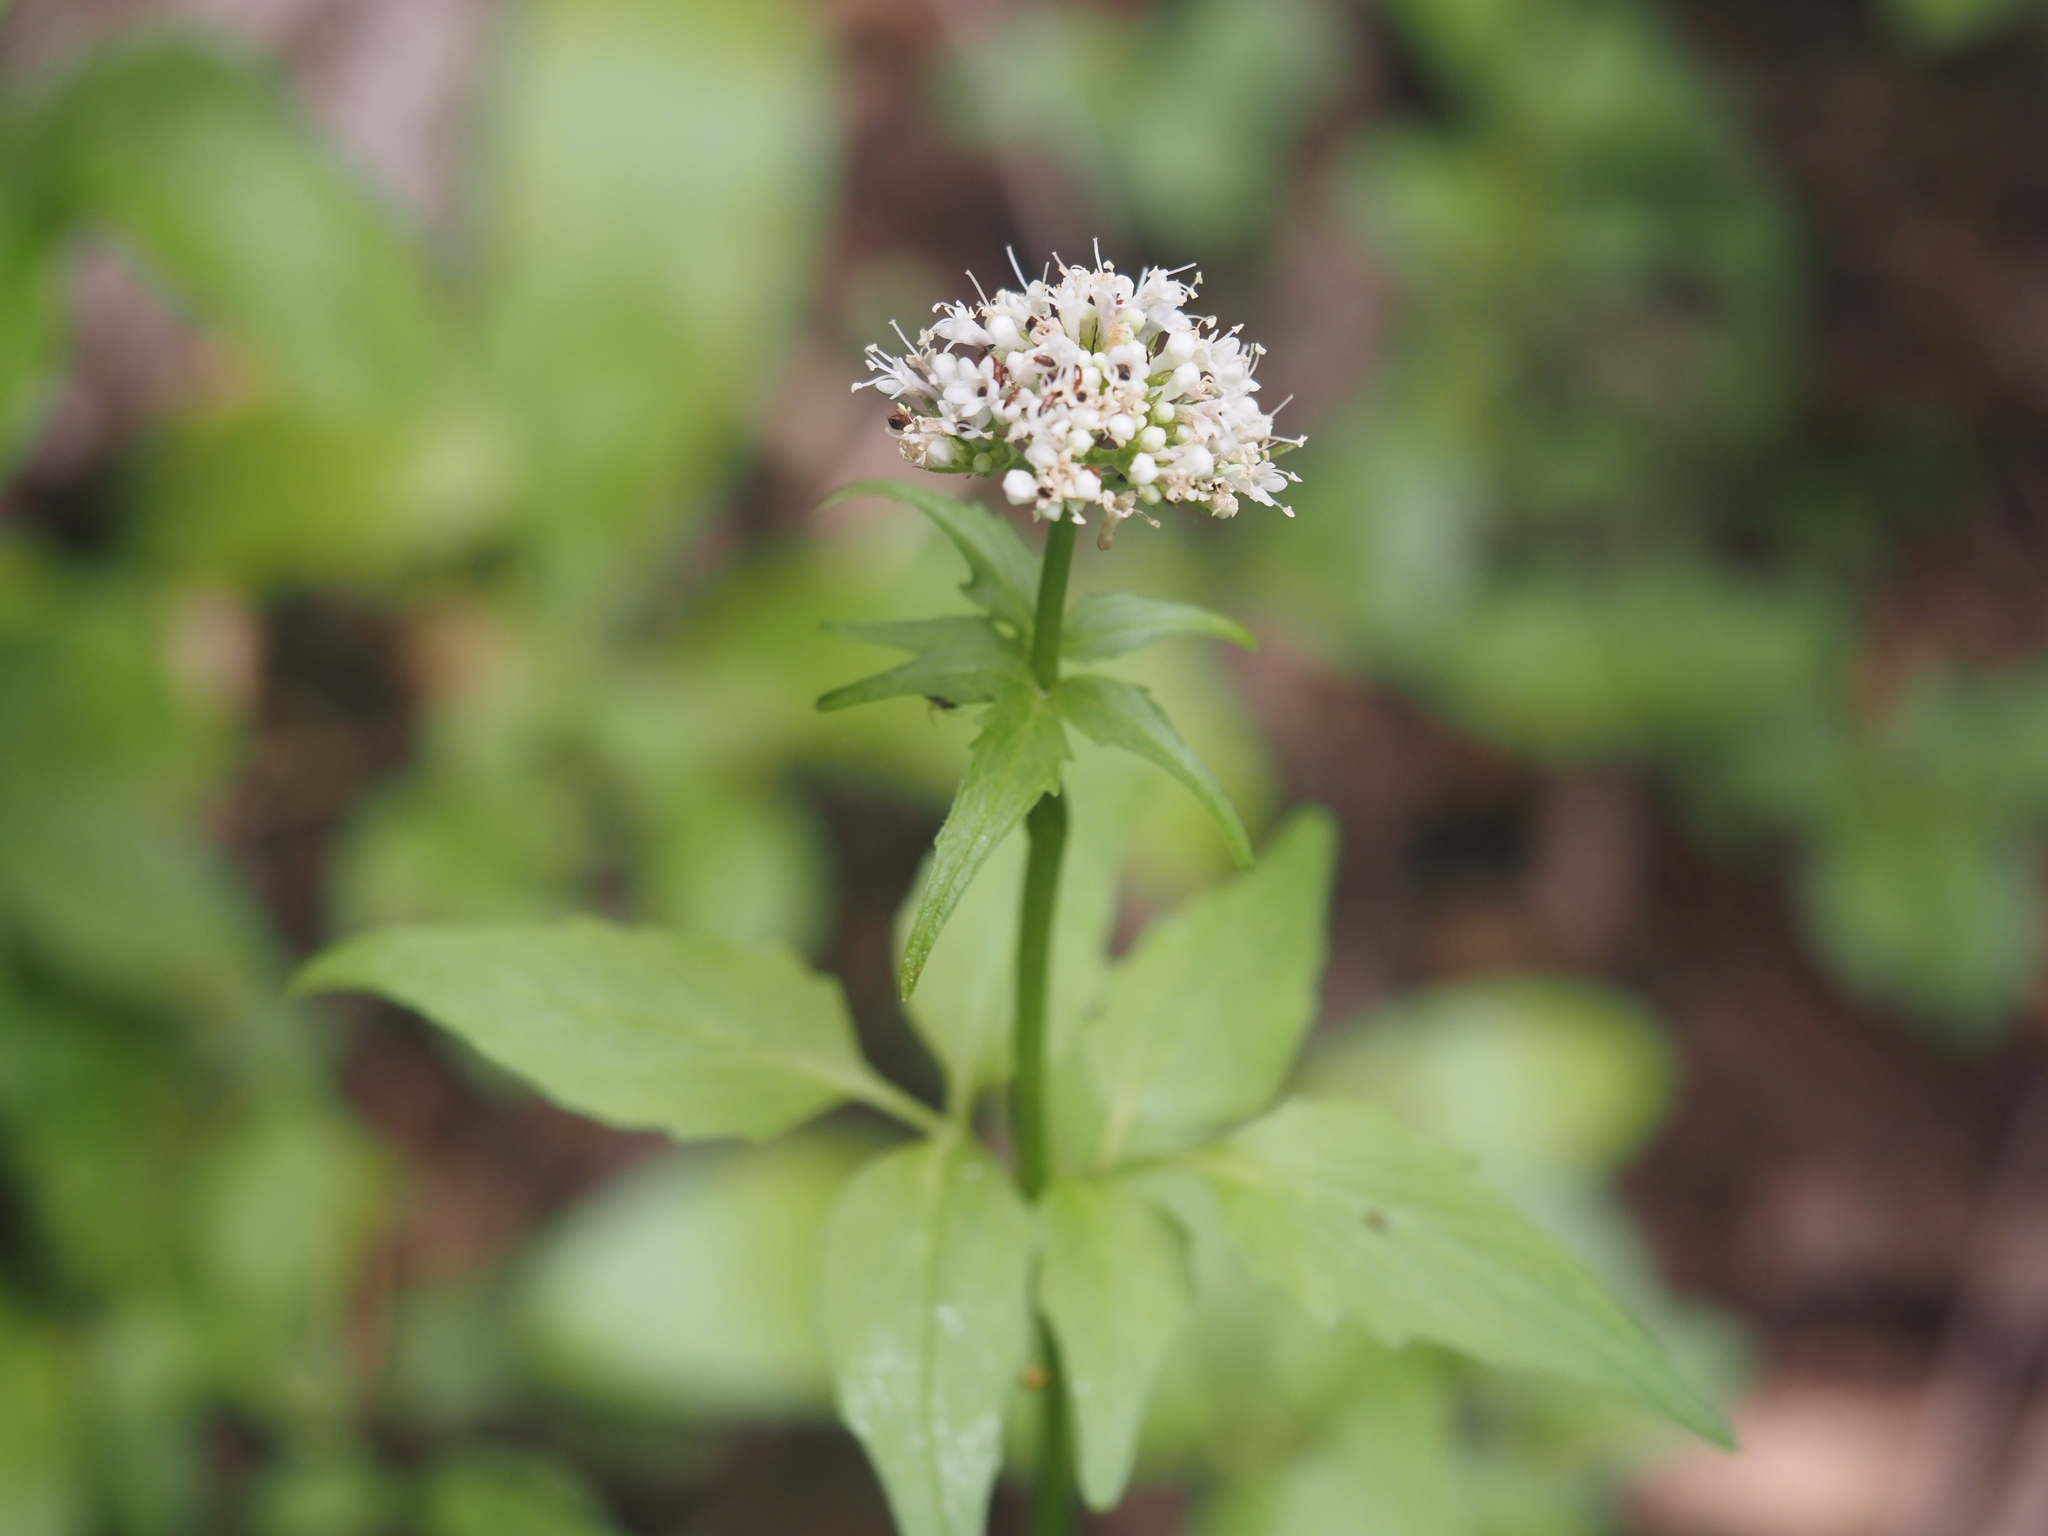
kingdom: Plantae
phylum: Tracheophyta
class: Magnoliopsida
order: Dipsacales
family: Caprifoliaceae
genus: Valeriana
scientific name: Valeriana sitchensis
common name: Pacific valerian
